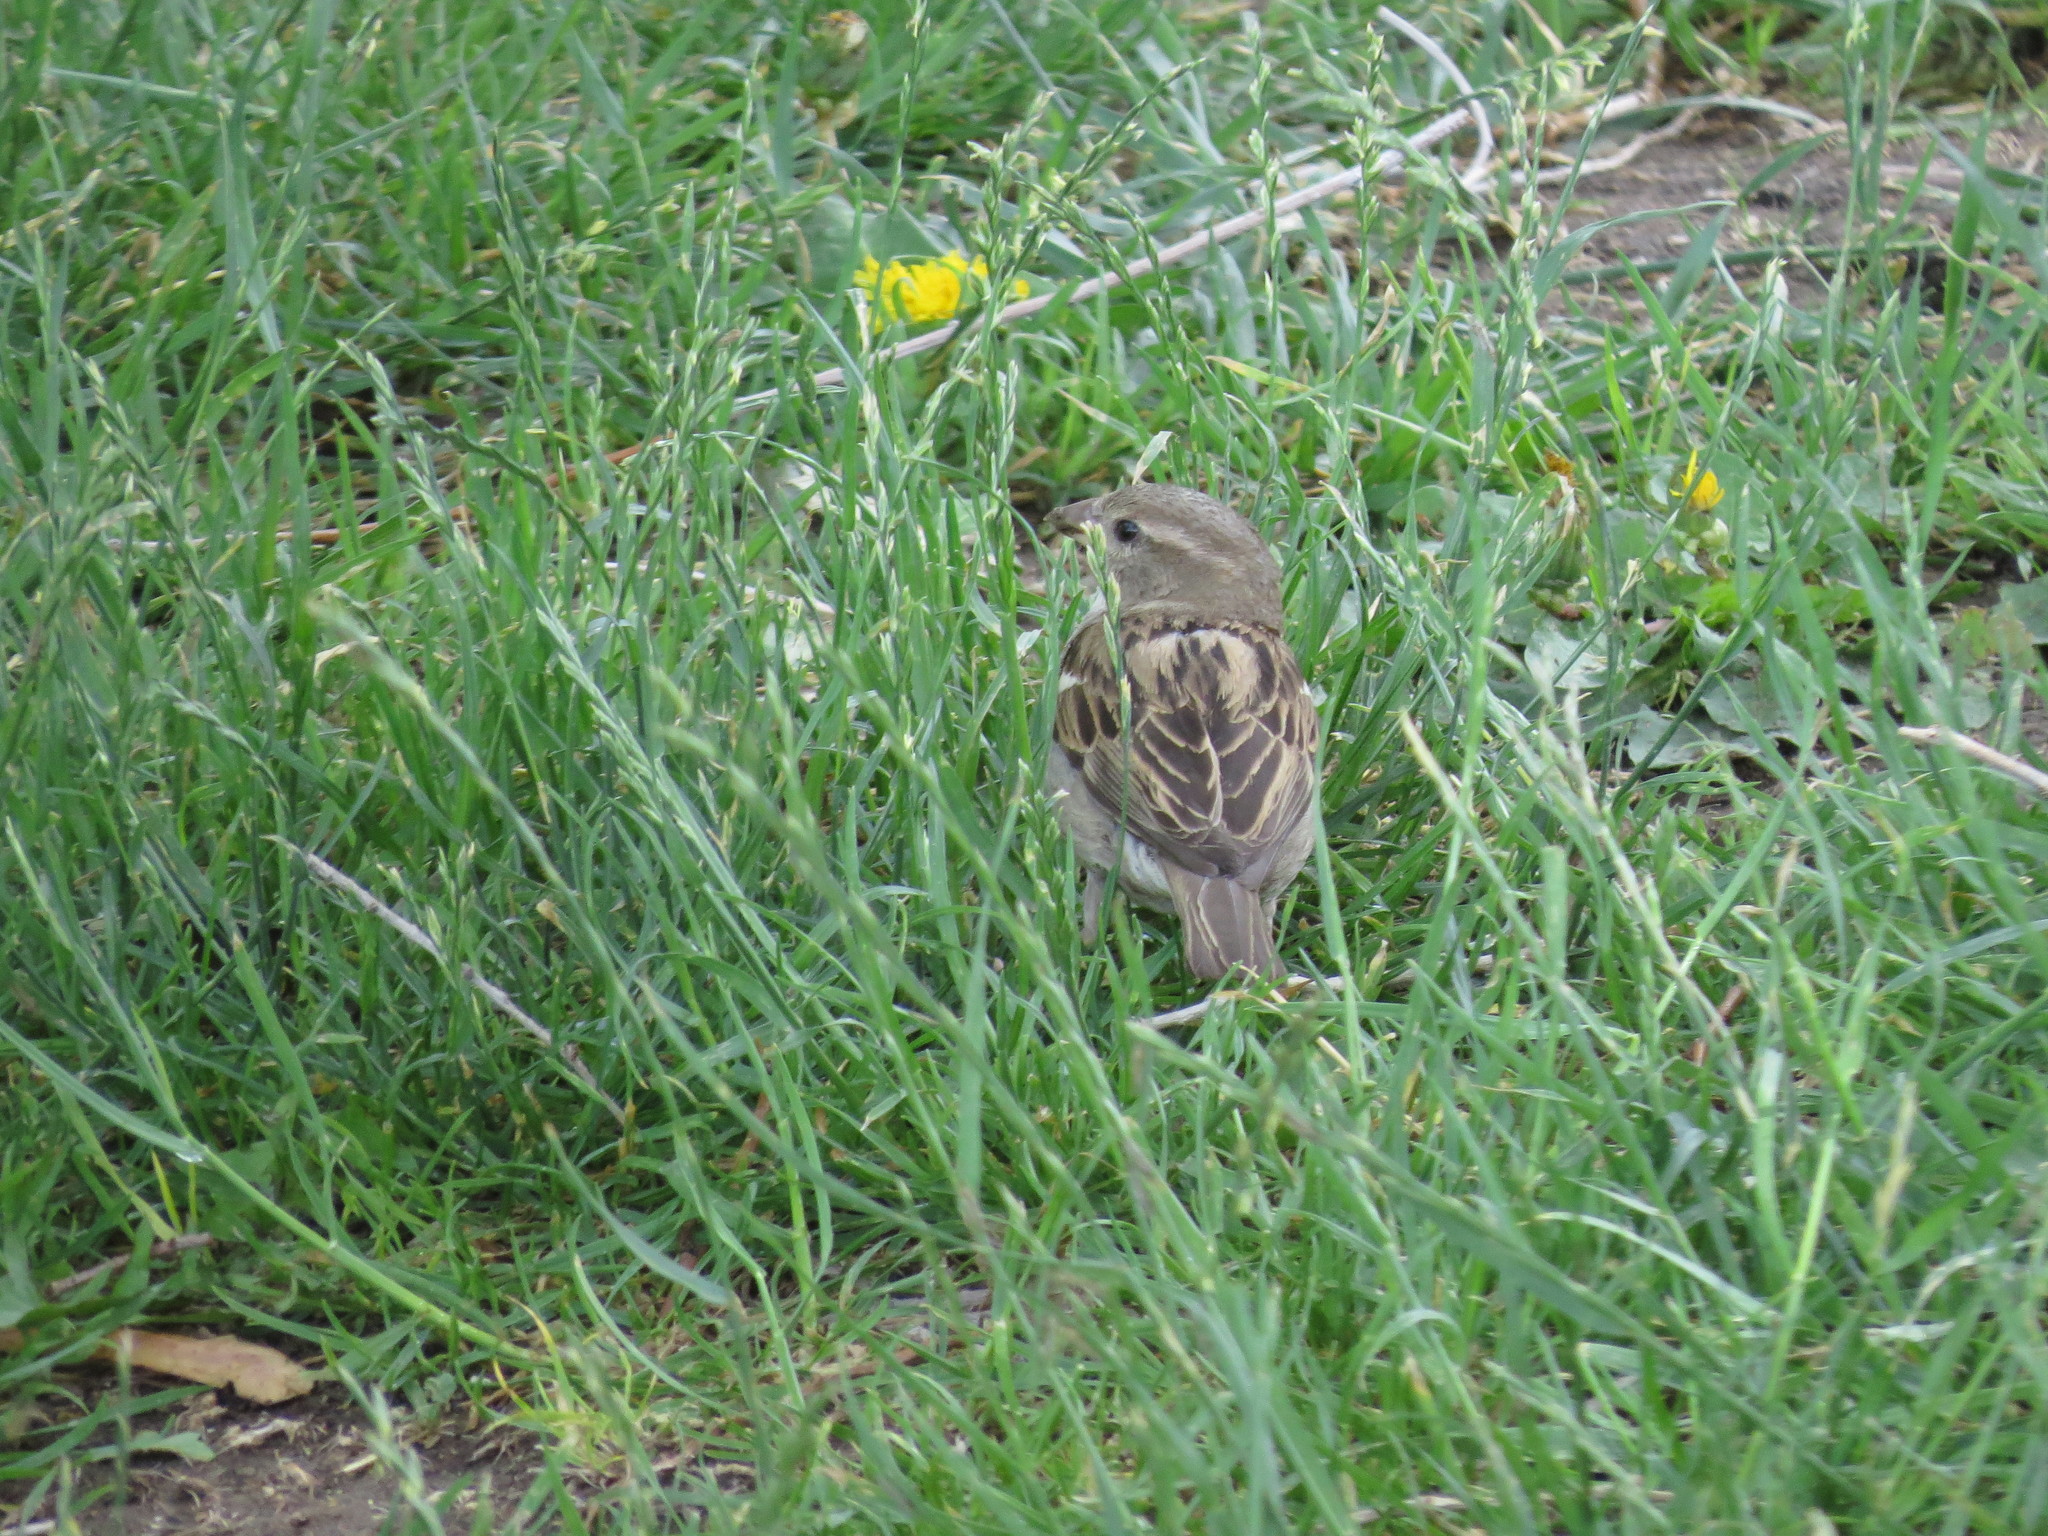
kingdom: Animalia
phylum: Chordata
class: Aves
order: Passeriformes
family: Passeridae
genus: Passer
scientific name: Passer domesticus
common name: House sparrow
